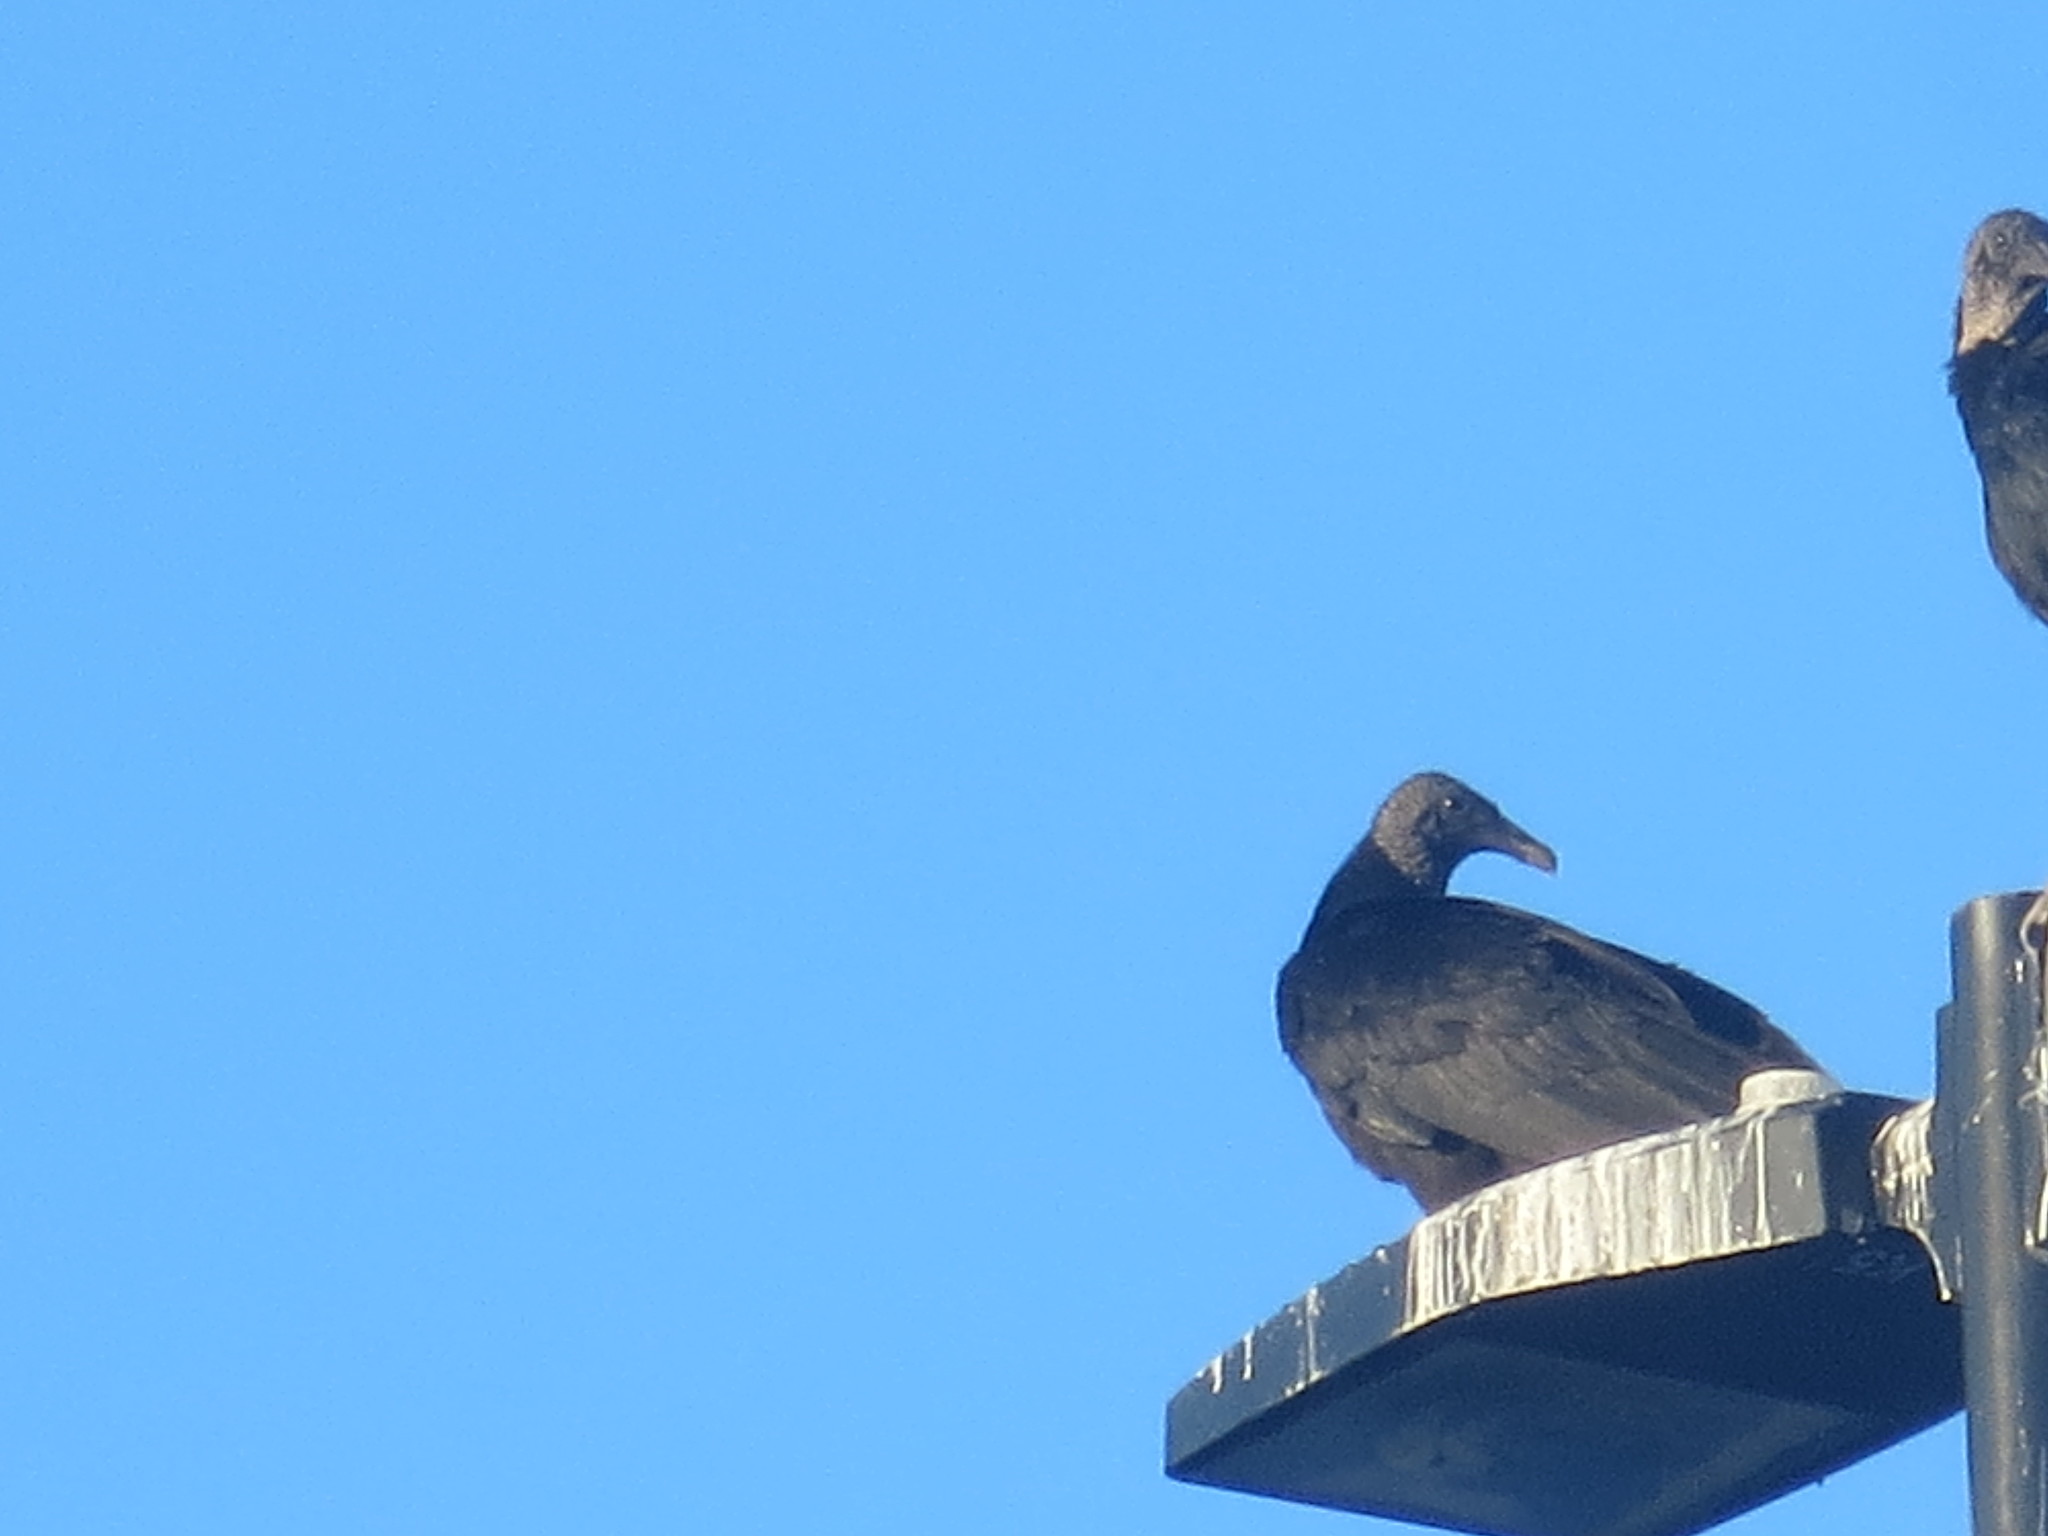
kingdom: Animalia
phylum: Chordata
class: Aves
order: Accipitriformes
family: Cathartidae
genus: Coragyps
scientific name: Coragyps atratus
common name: Black vulture
